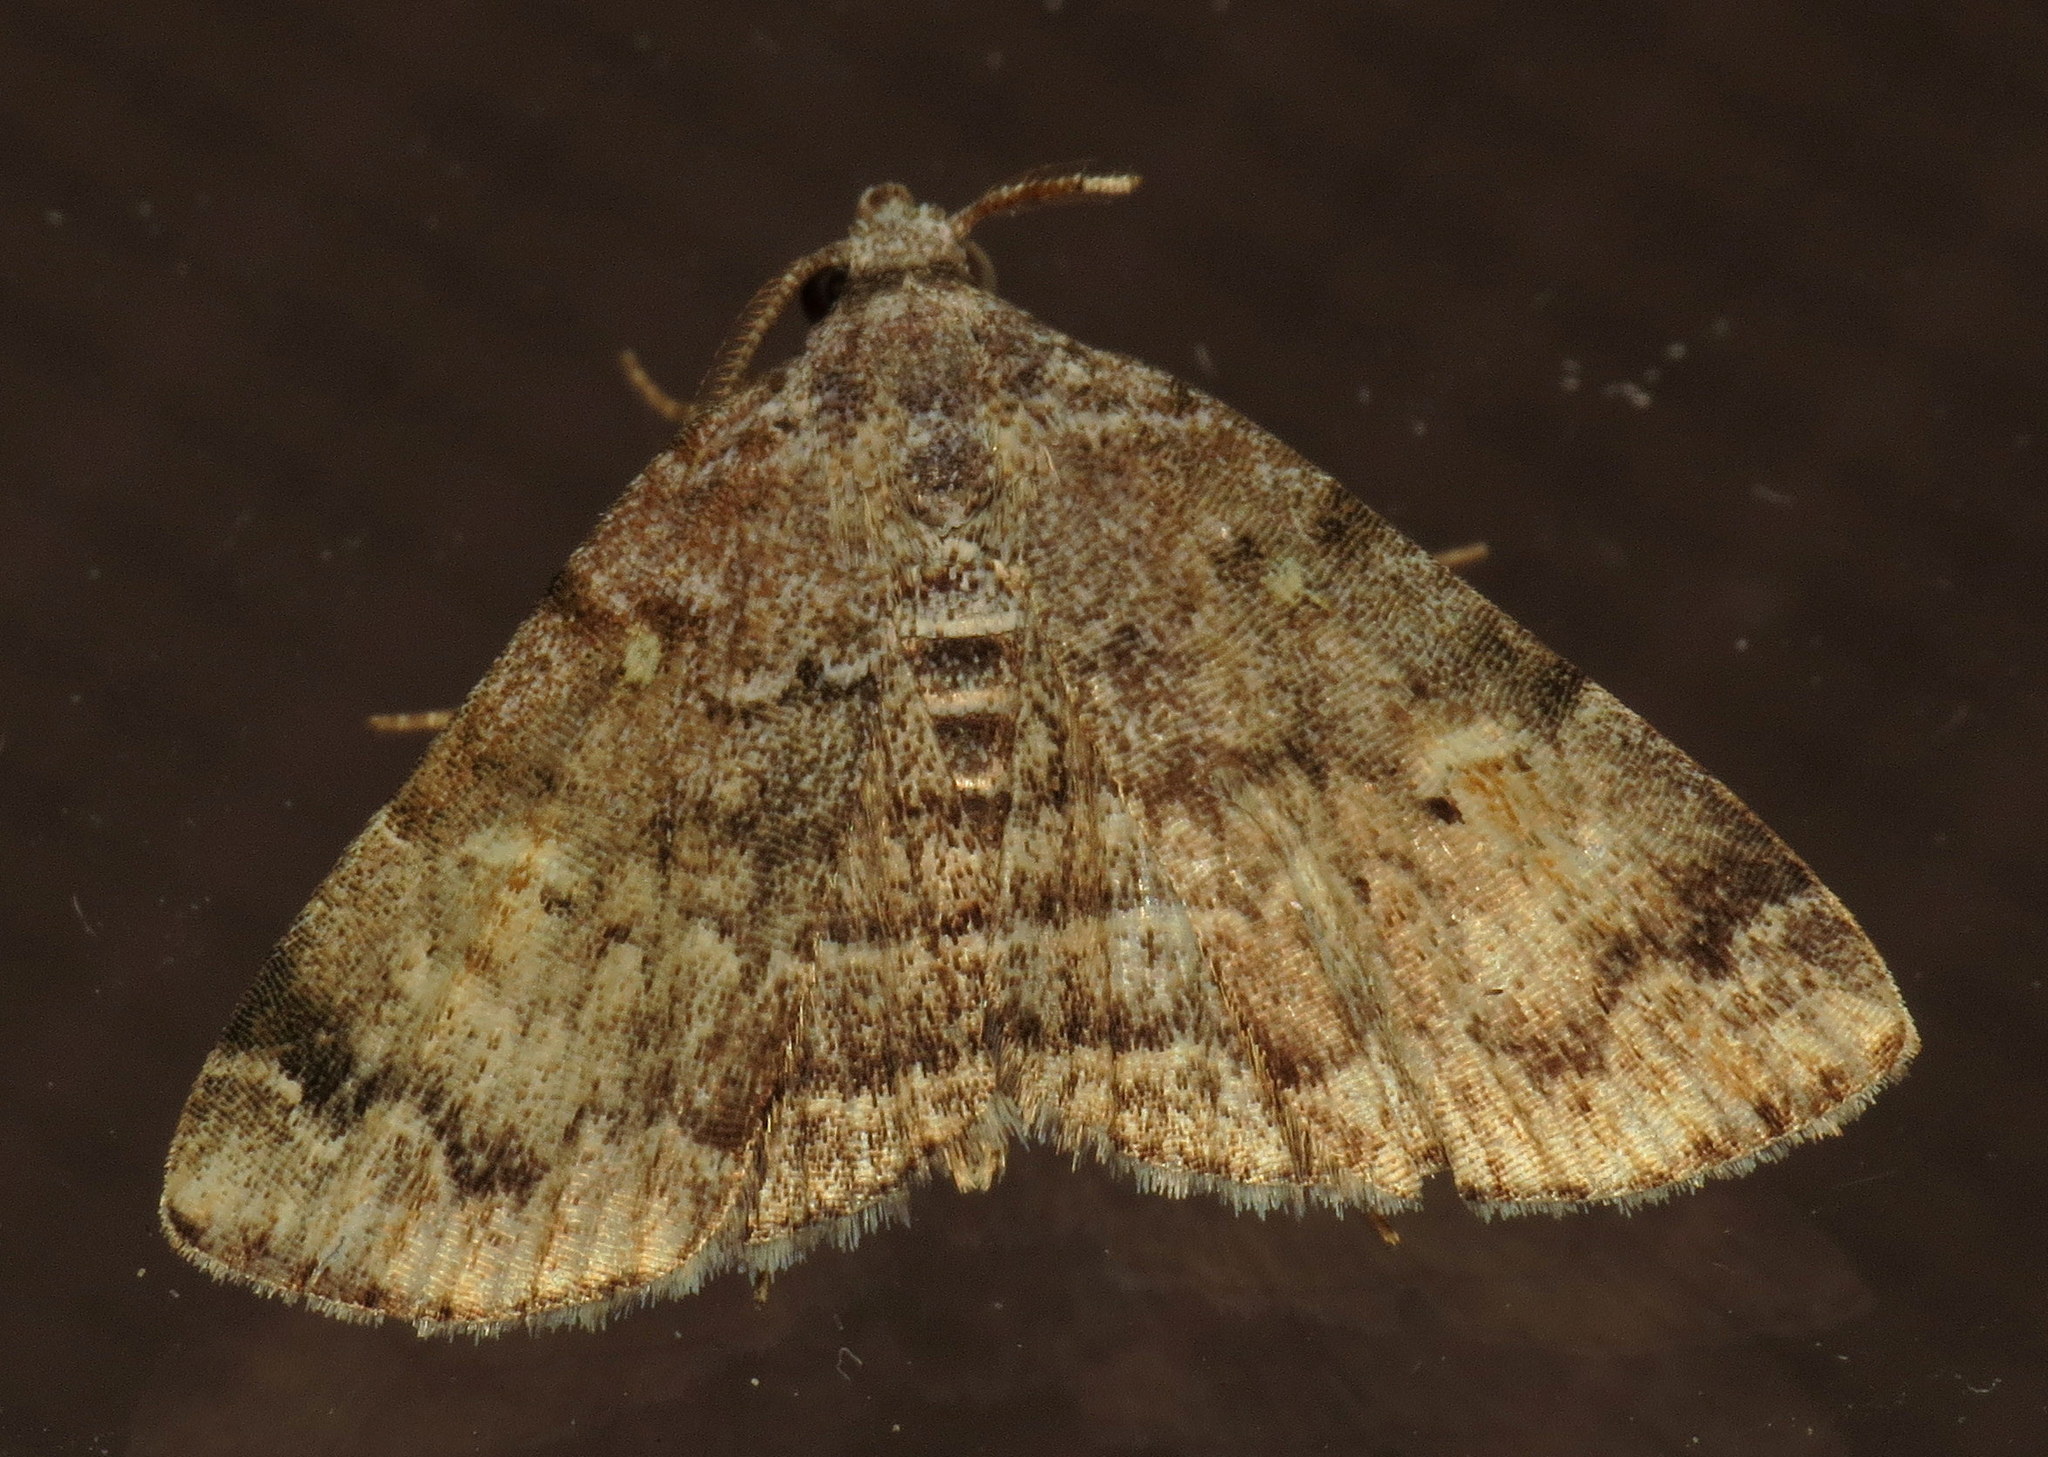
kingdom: Animalia
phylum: Arthropoda
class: Insecta
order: Lepidoptera
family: Erebidae
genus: Idia
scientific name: Idia americalis
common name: American idia moth
